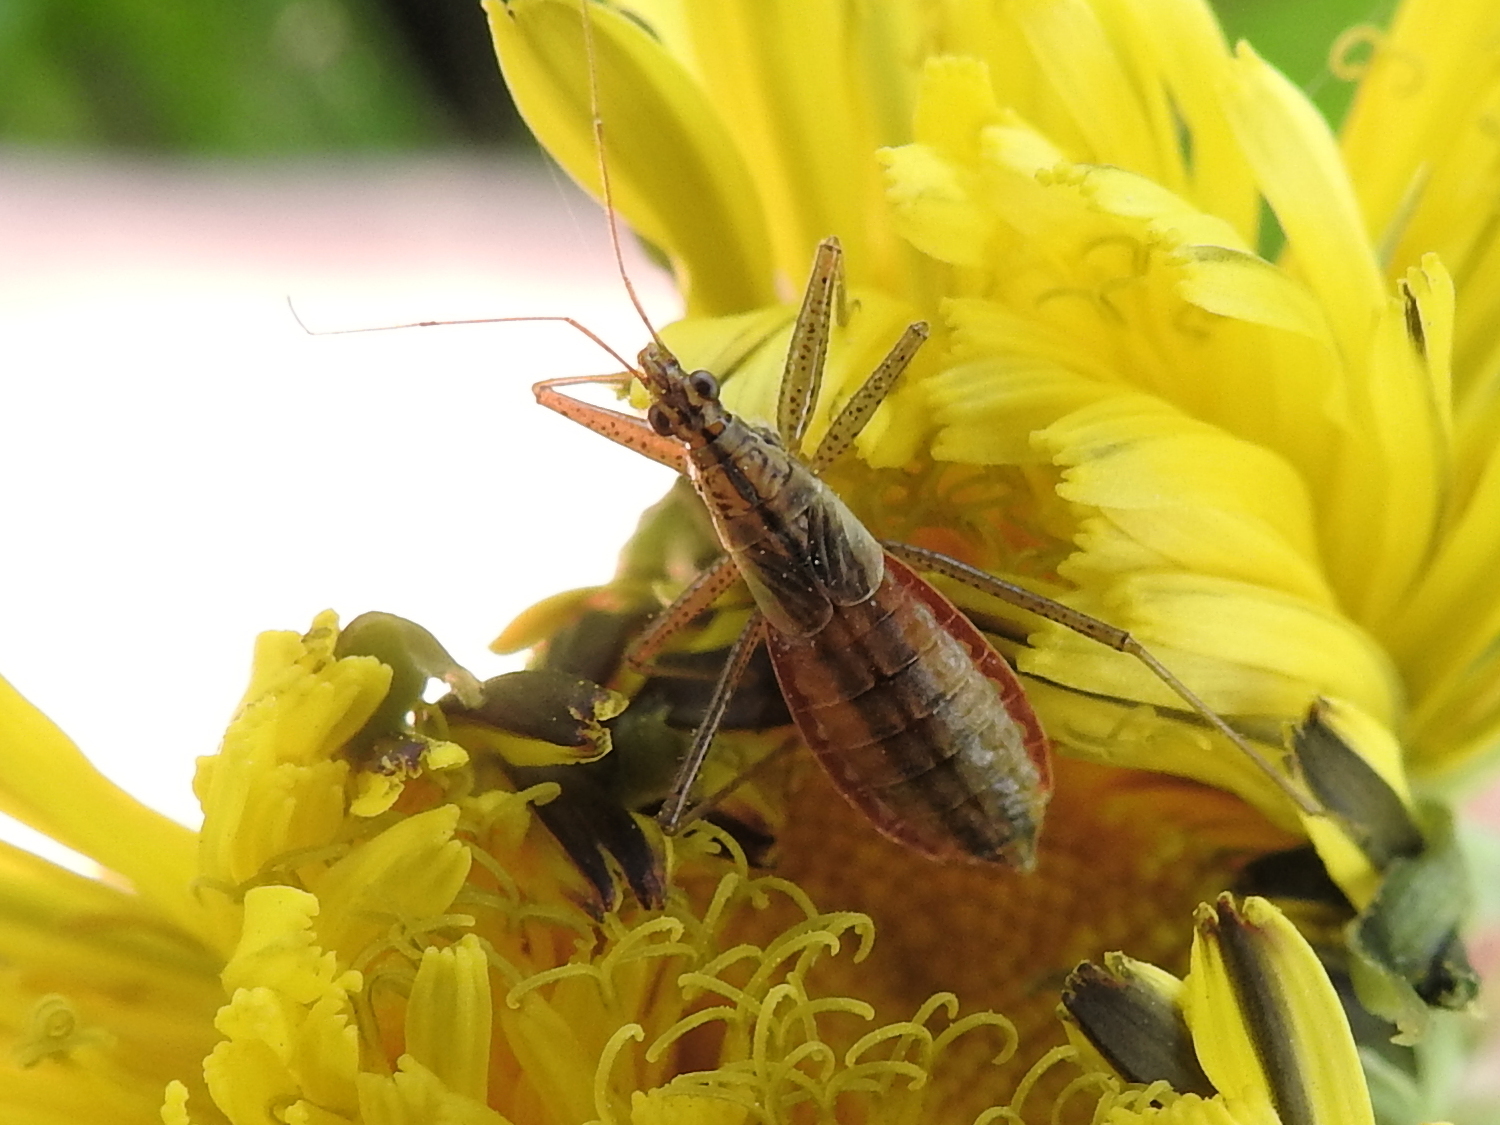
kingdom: Animalia
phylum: Arthropoda
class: Insecta
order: Hemiptera
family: Nabidae
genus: Nabis
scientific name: Nabis limbatus
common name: Marsh damselbug
